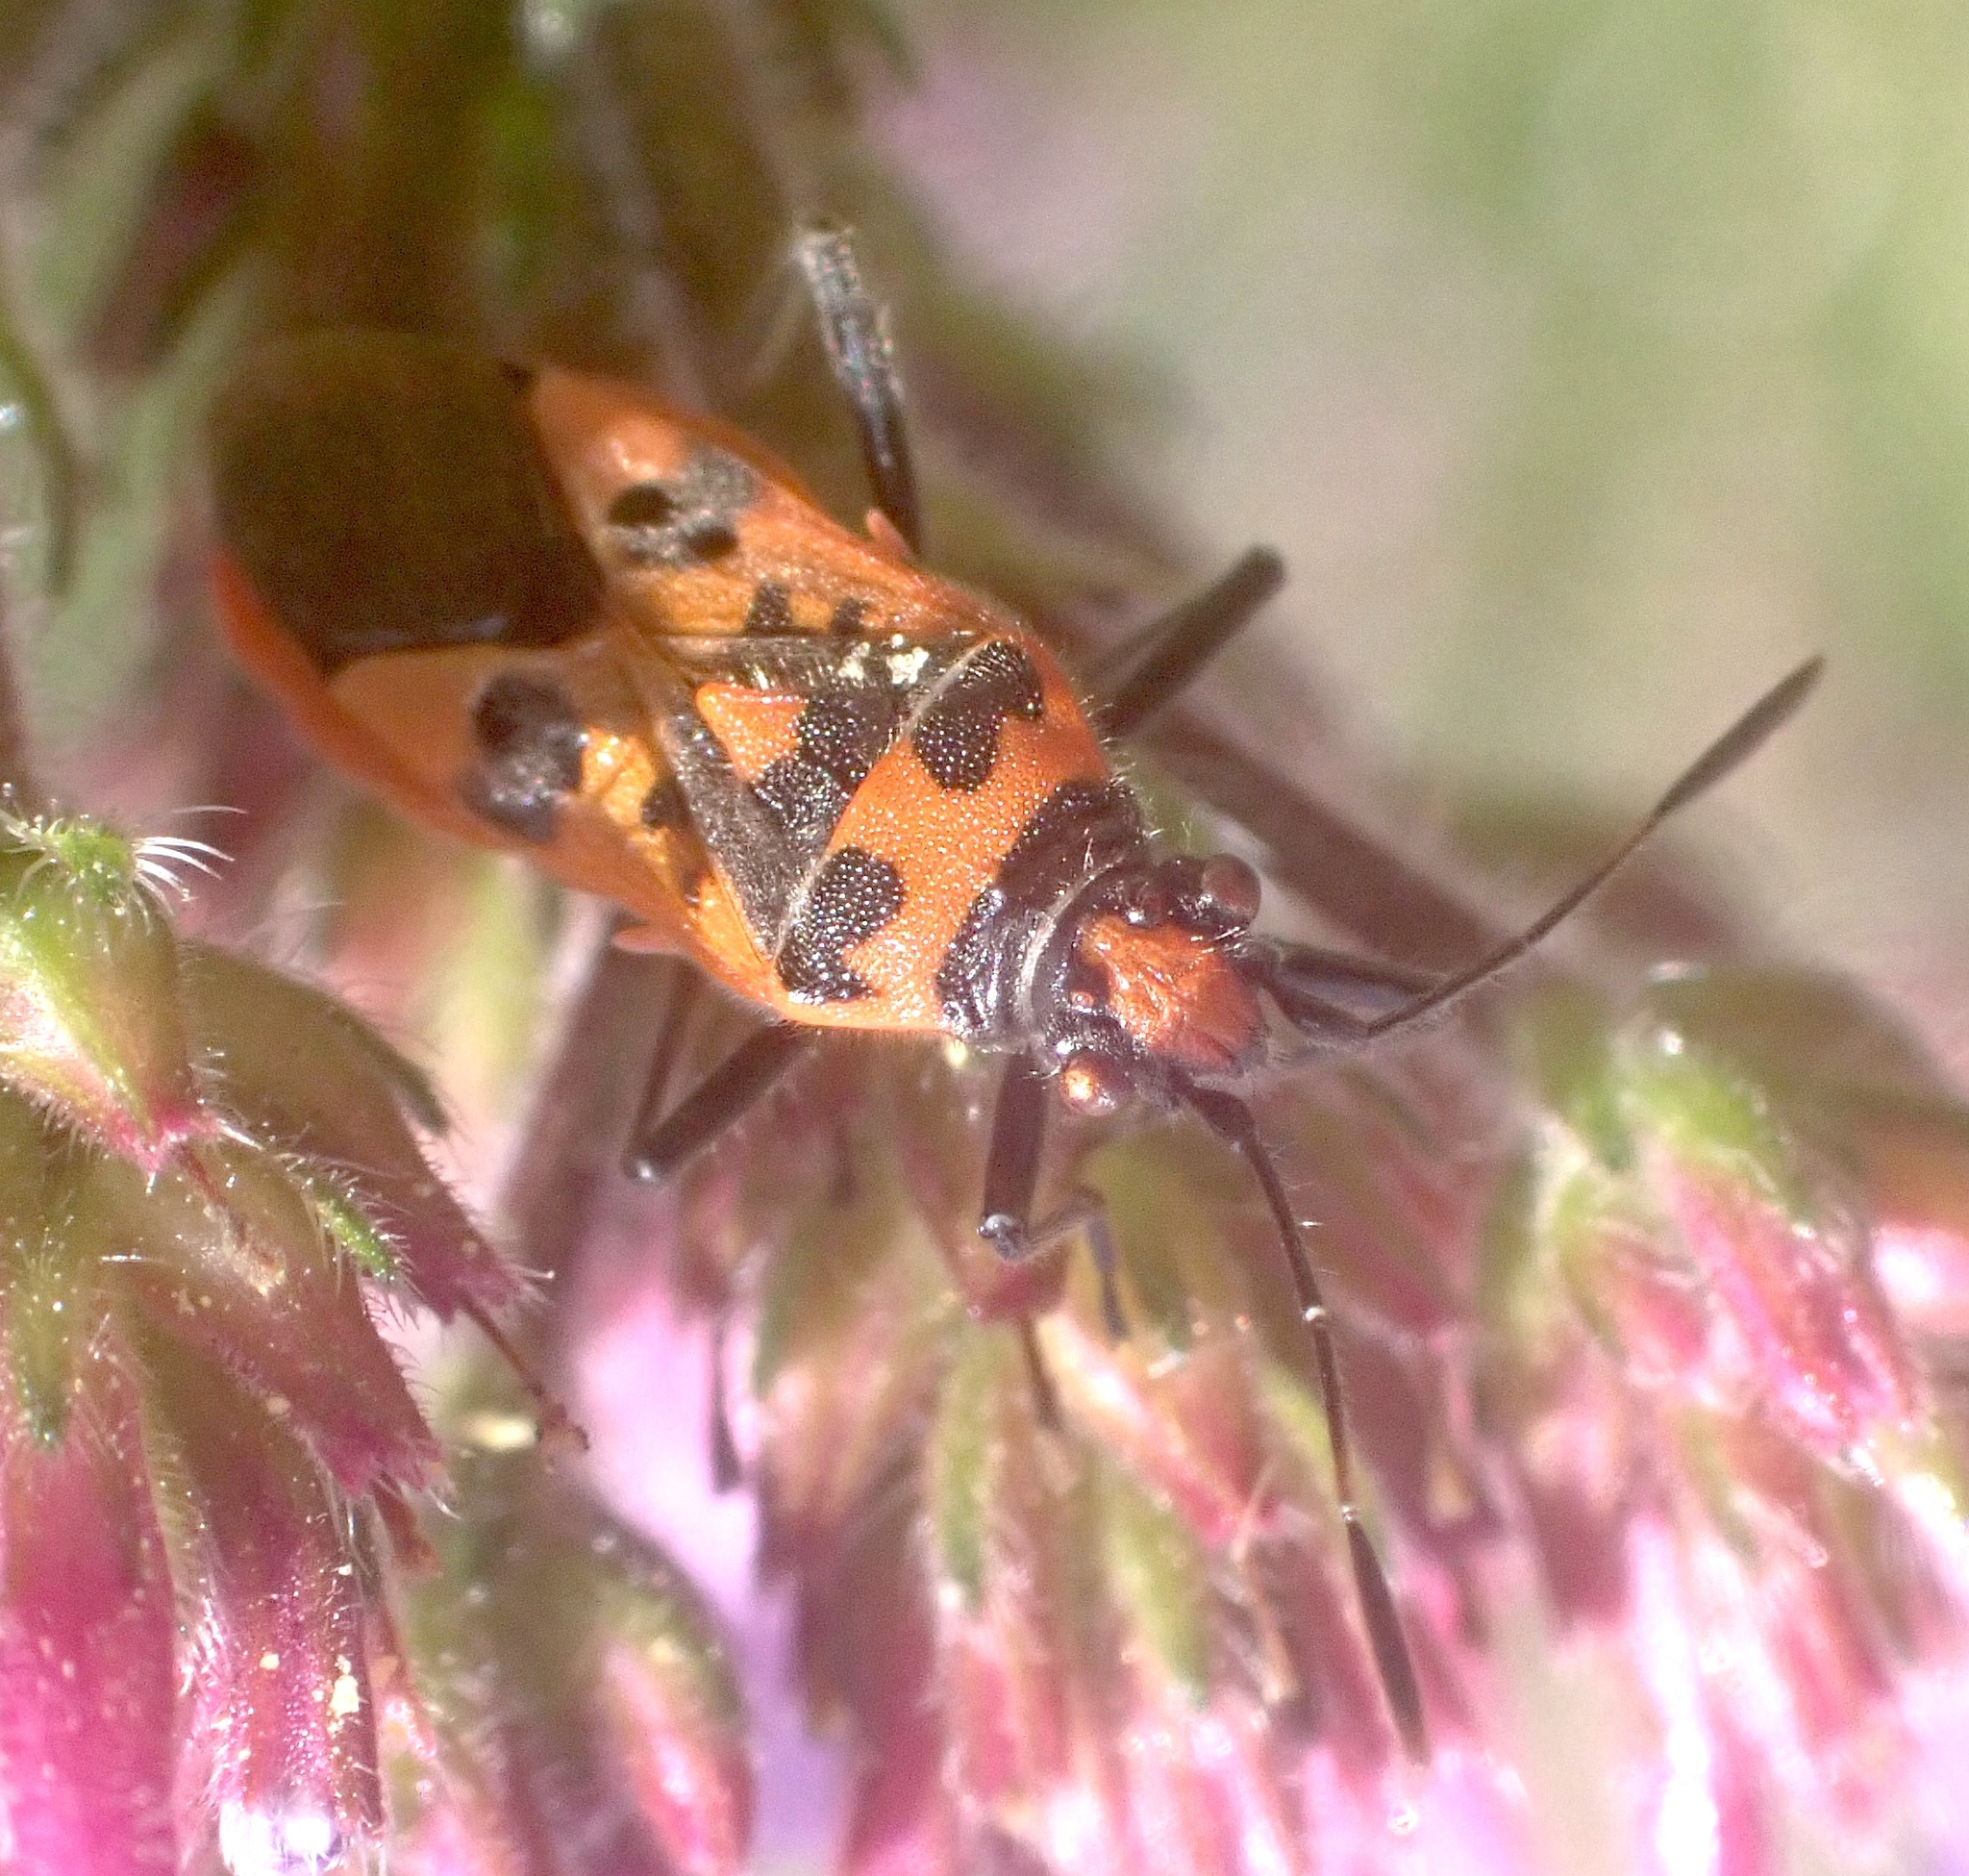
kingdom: Animalia
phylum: Arthropoda
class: Insecta
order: Hemiptera
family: Rhopalidae
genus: Corizus
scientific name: Corizus hyoscyami
